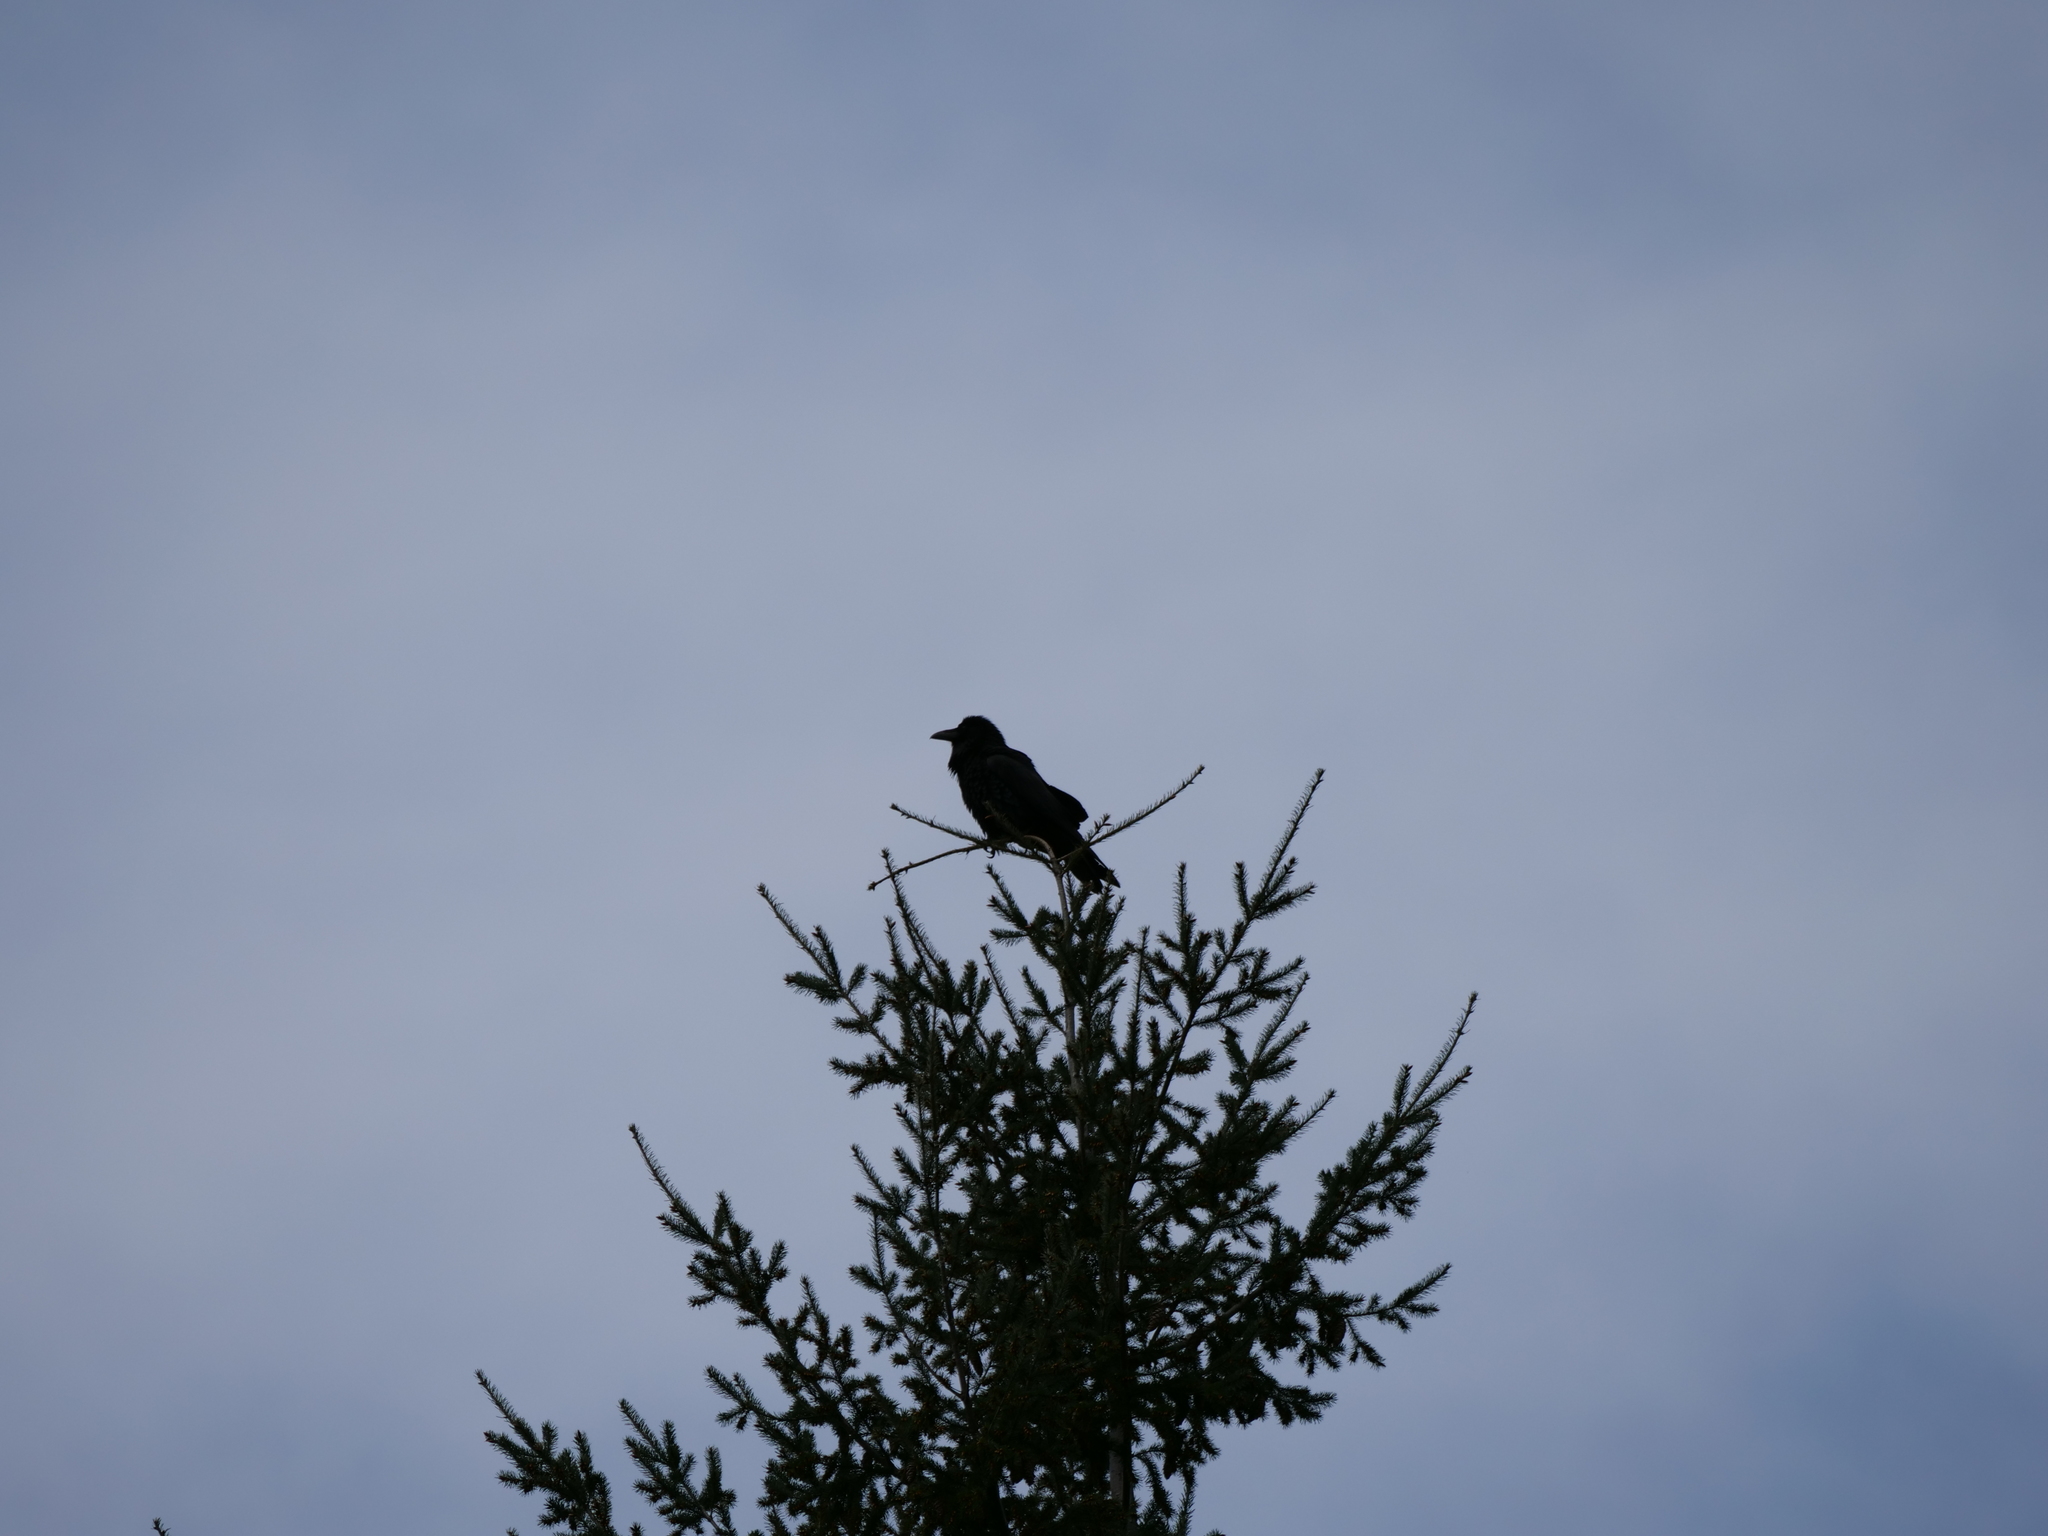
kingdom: Animalia
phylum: Chordata
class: Aves
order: Passeriformes
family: Corvidae
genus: Corvus
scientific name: Corvus corax
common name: Common raven
